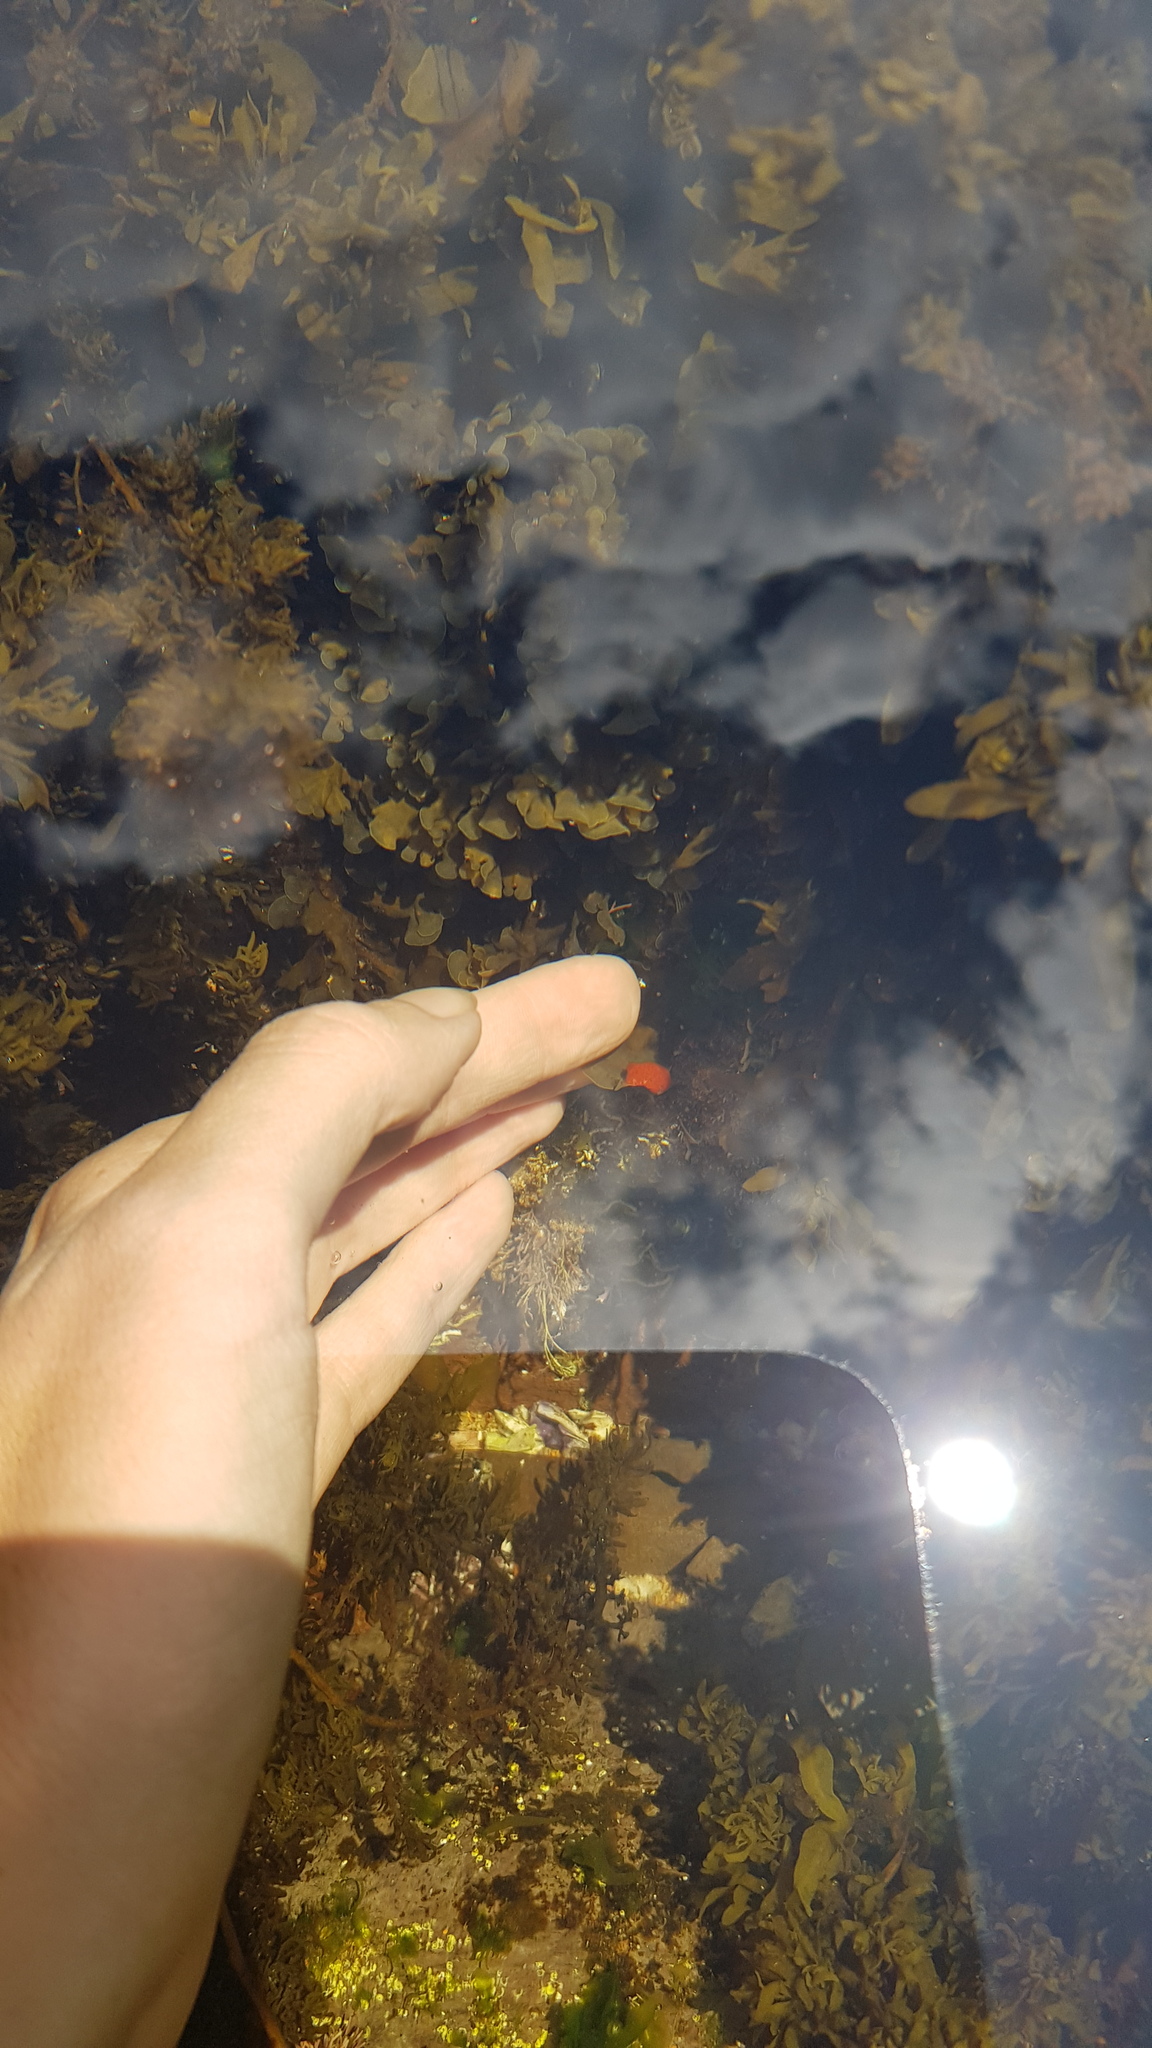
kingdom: Animalia
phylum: Mollusca
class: Gastropoda
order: Nudibranchia
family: Discodorididae
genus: Rostanga
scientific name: Rostanga arbutus
